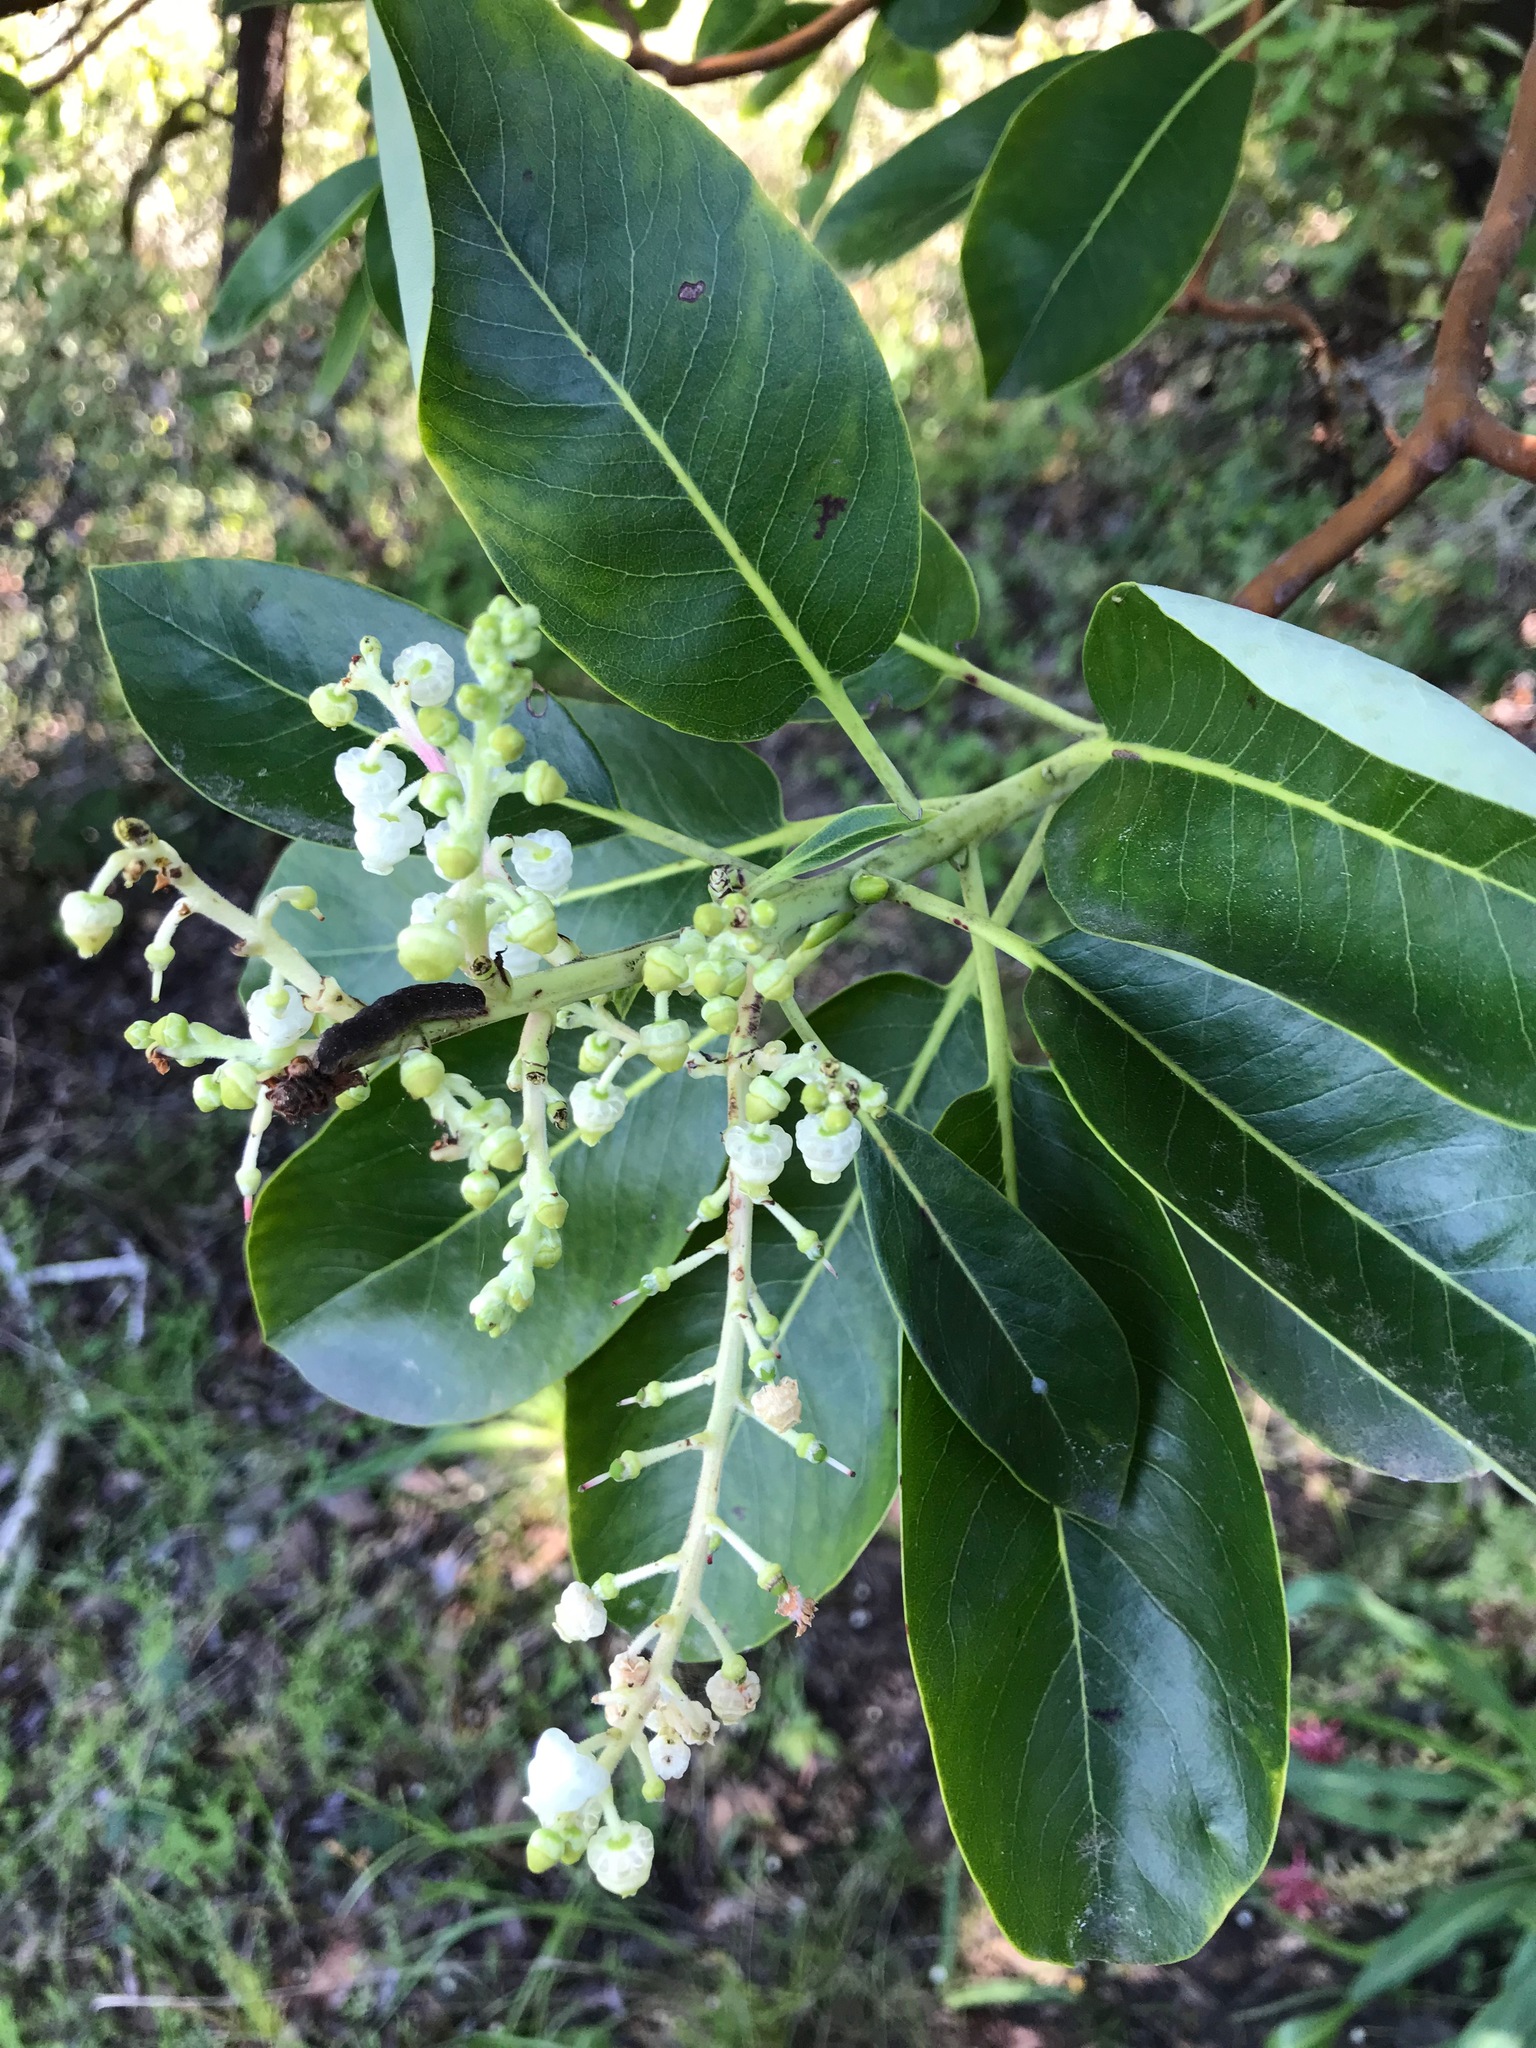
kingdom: Plantae
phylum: Tracheophyta
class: Magnoliopsida
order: Ericales
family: Ericaceae
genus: Arbutus
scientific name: Arbutus menziesii
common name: Pacific madrone
